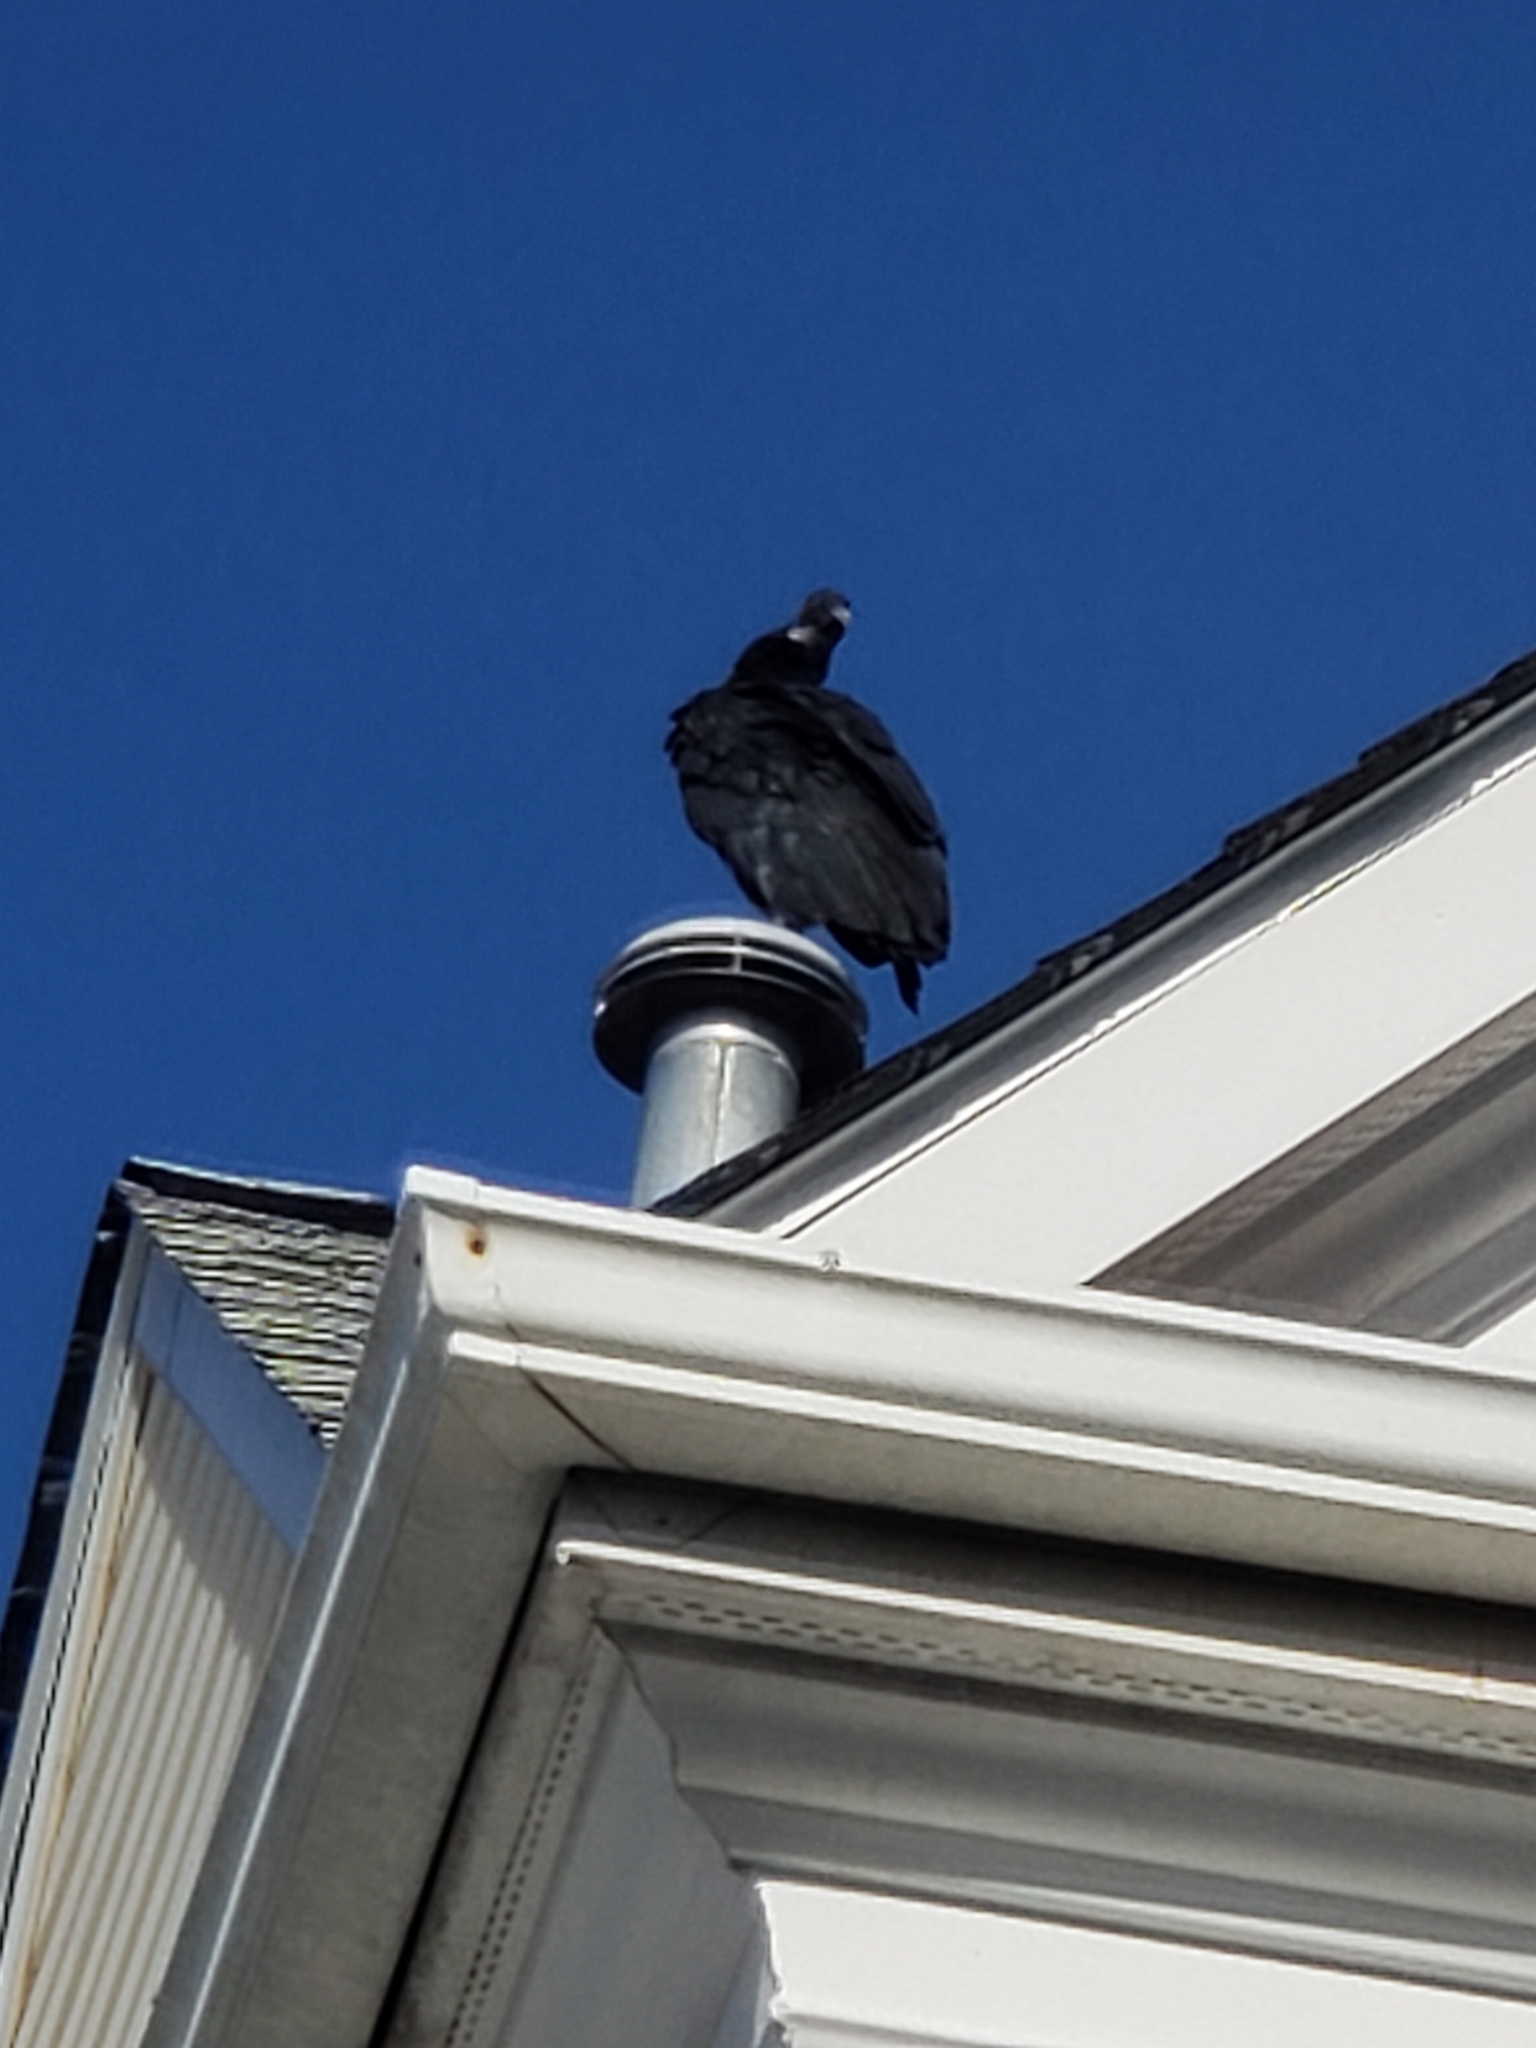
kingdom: Animalia
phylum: Chordata
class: Aves
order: Accipitriformes
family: Cathartidae
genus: Coragyps
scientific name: Coragyps atratus
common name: Black vulture
